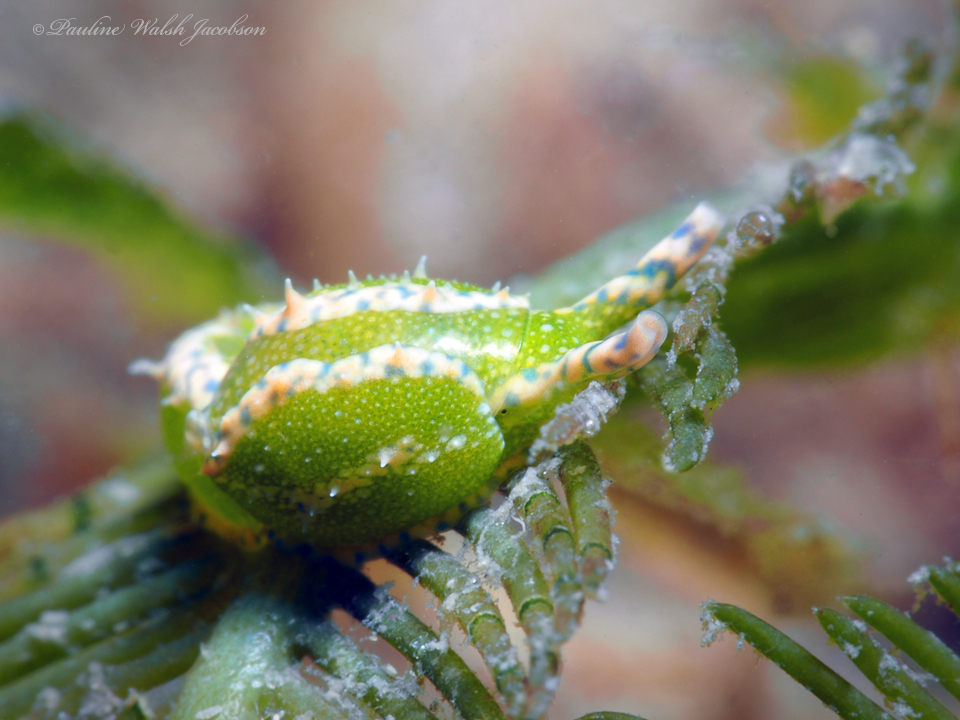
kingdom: Animalia
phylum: Mollusca
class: Gastropoda
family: Oxynoidae
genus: Oxynoe
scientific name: Oxynoe antillarum
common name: Antilles oxynoe
